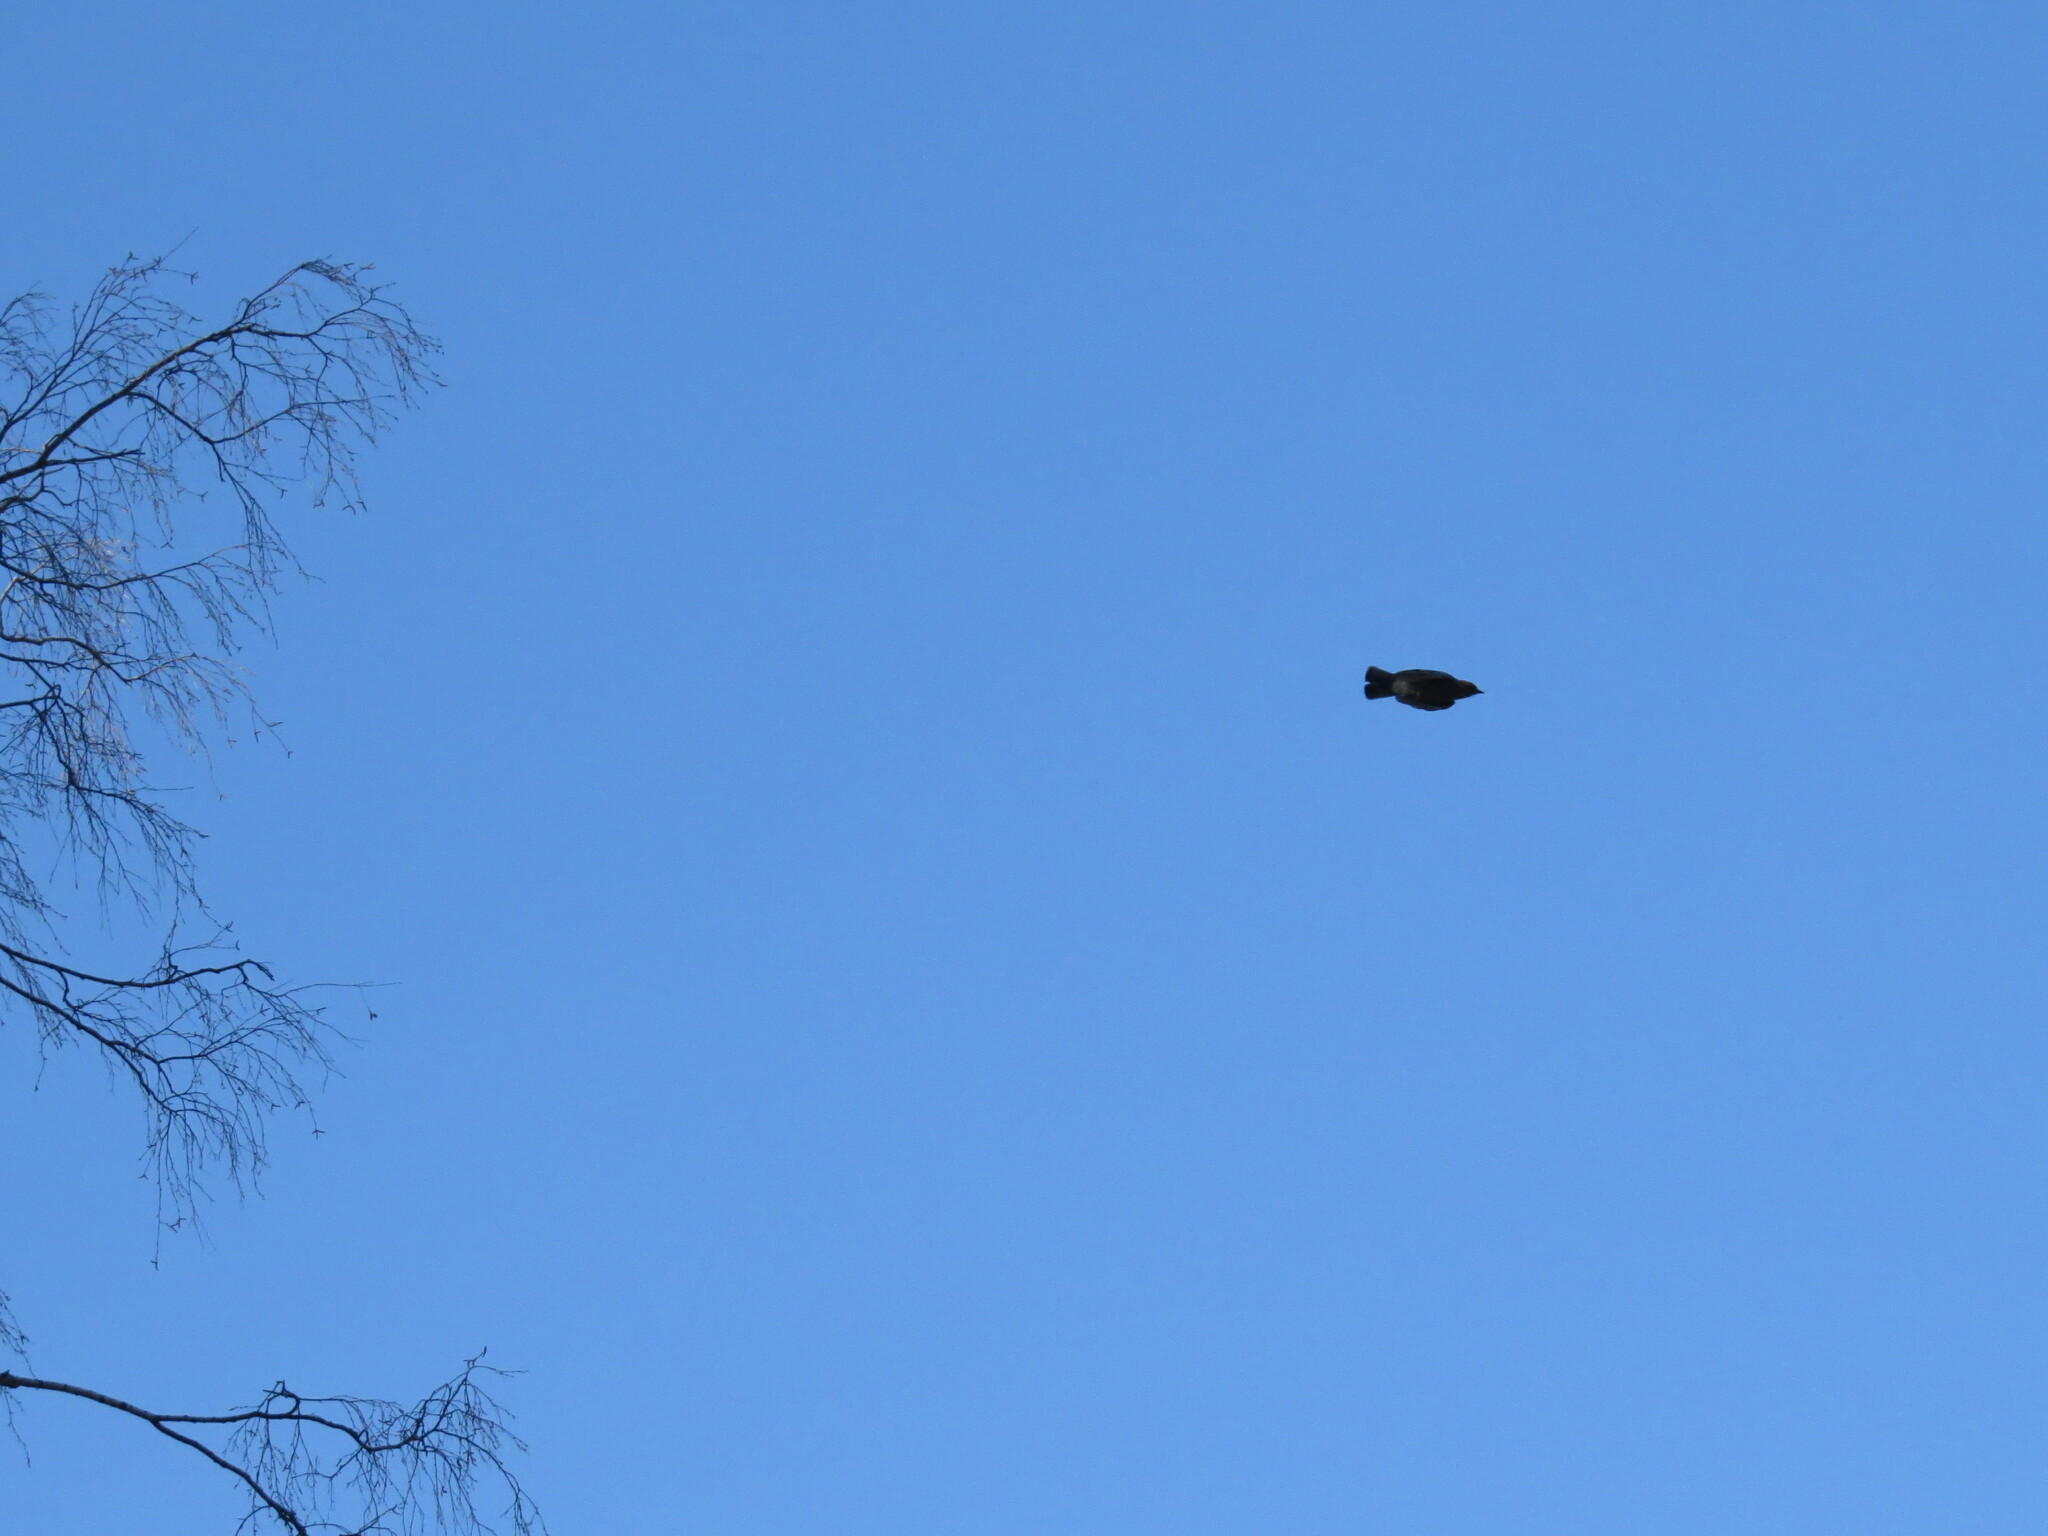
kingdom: Animalia
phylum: Chordata
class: Aves
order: Passeriformes
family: Corvidae
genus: Garrulus
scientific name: Garrulus glandarius
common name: Eurasian jay
